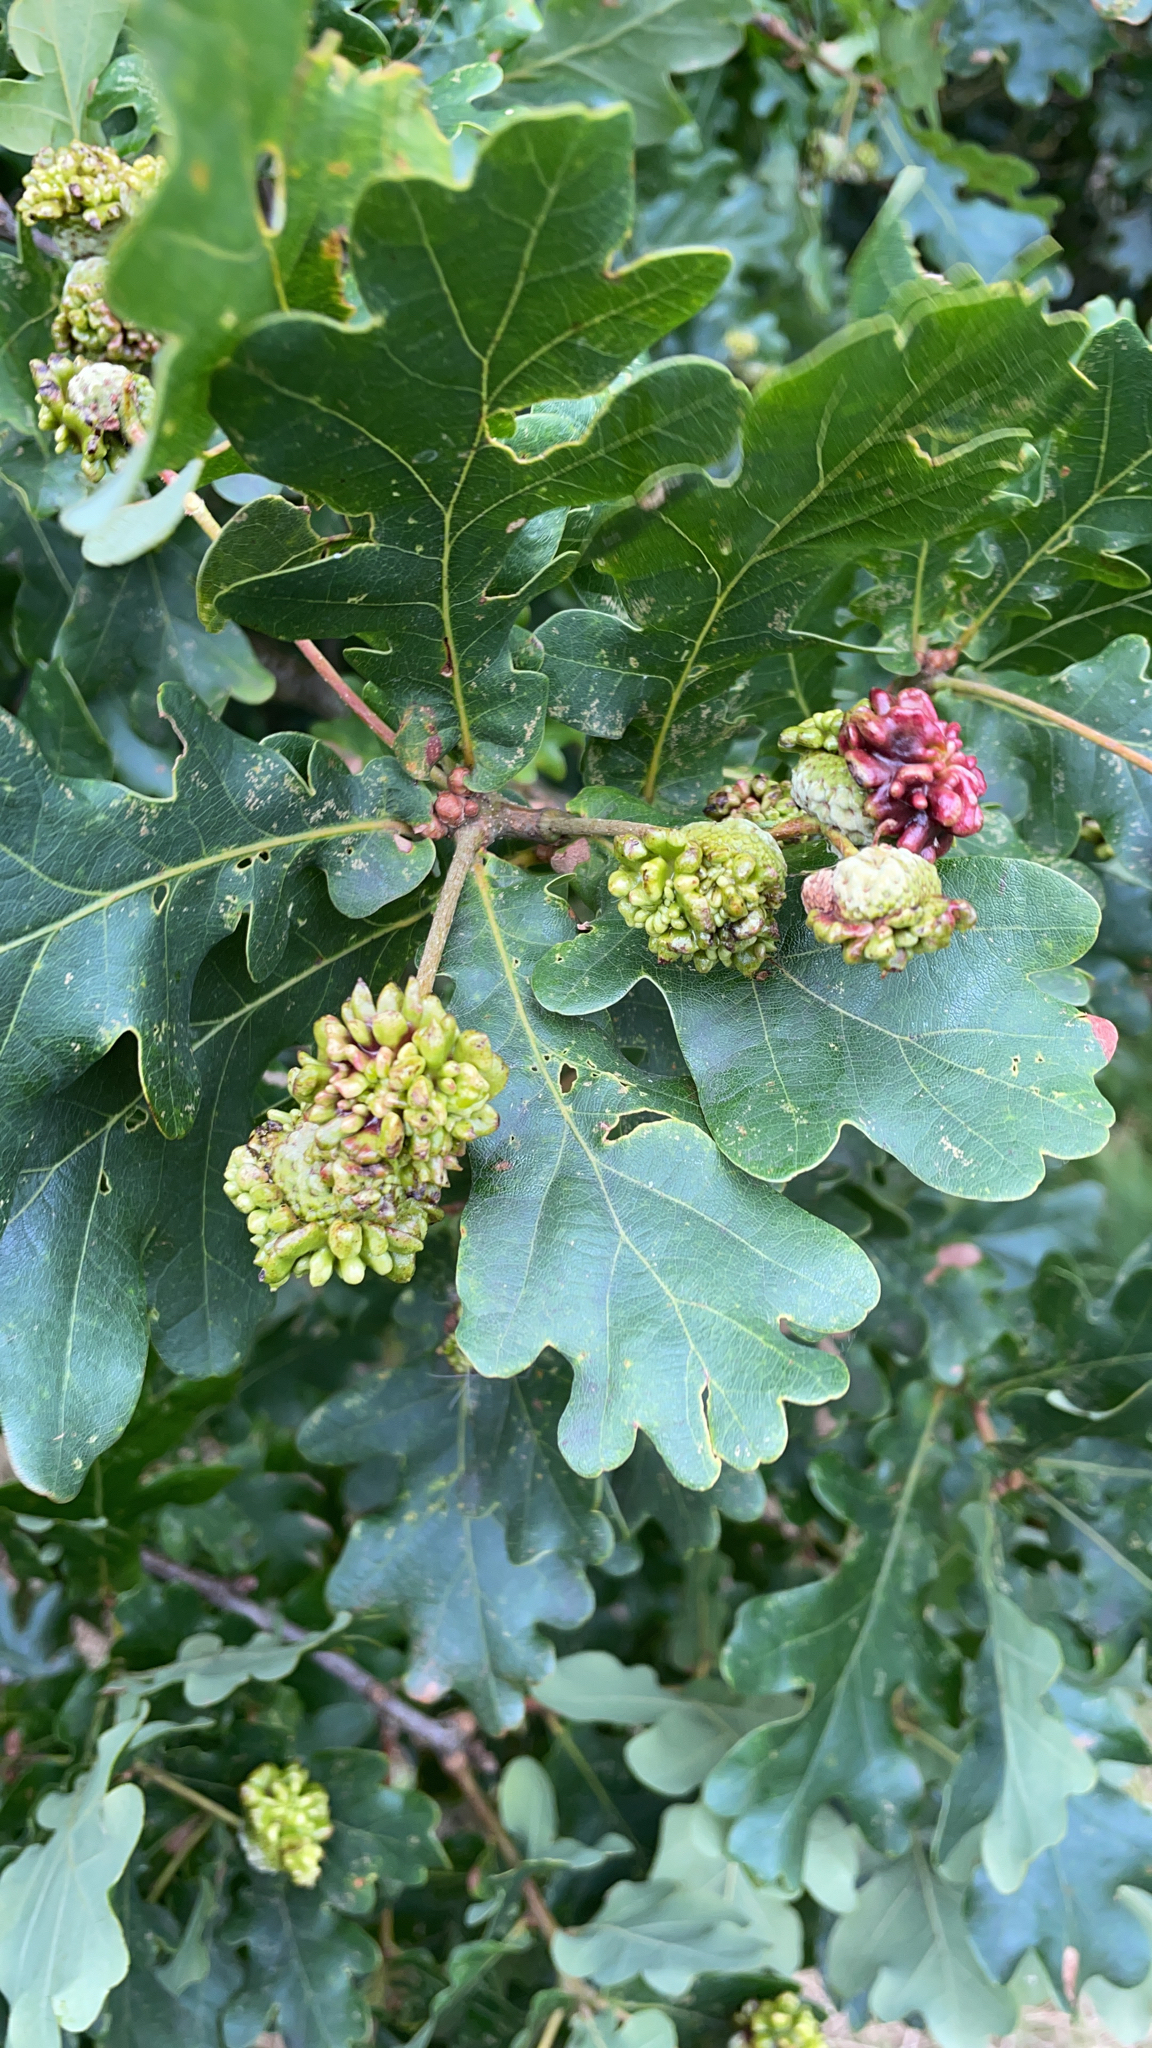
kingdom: Animalia
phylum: Arthropoda
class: Insecta
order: Hymenoptera
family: Cynipidae
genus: Andricus
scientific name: Andricus quercuscalicis
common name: Knopper gall
